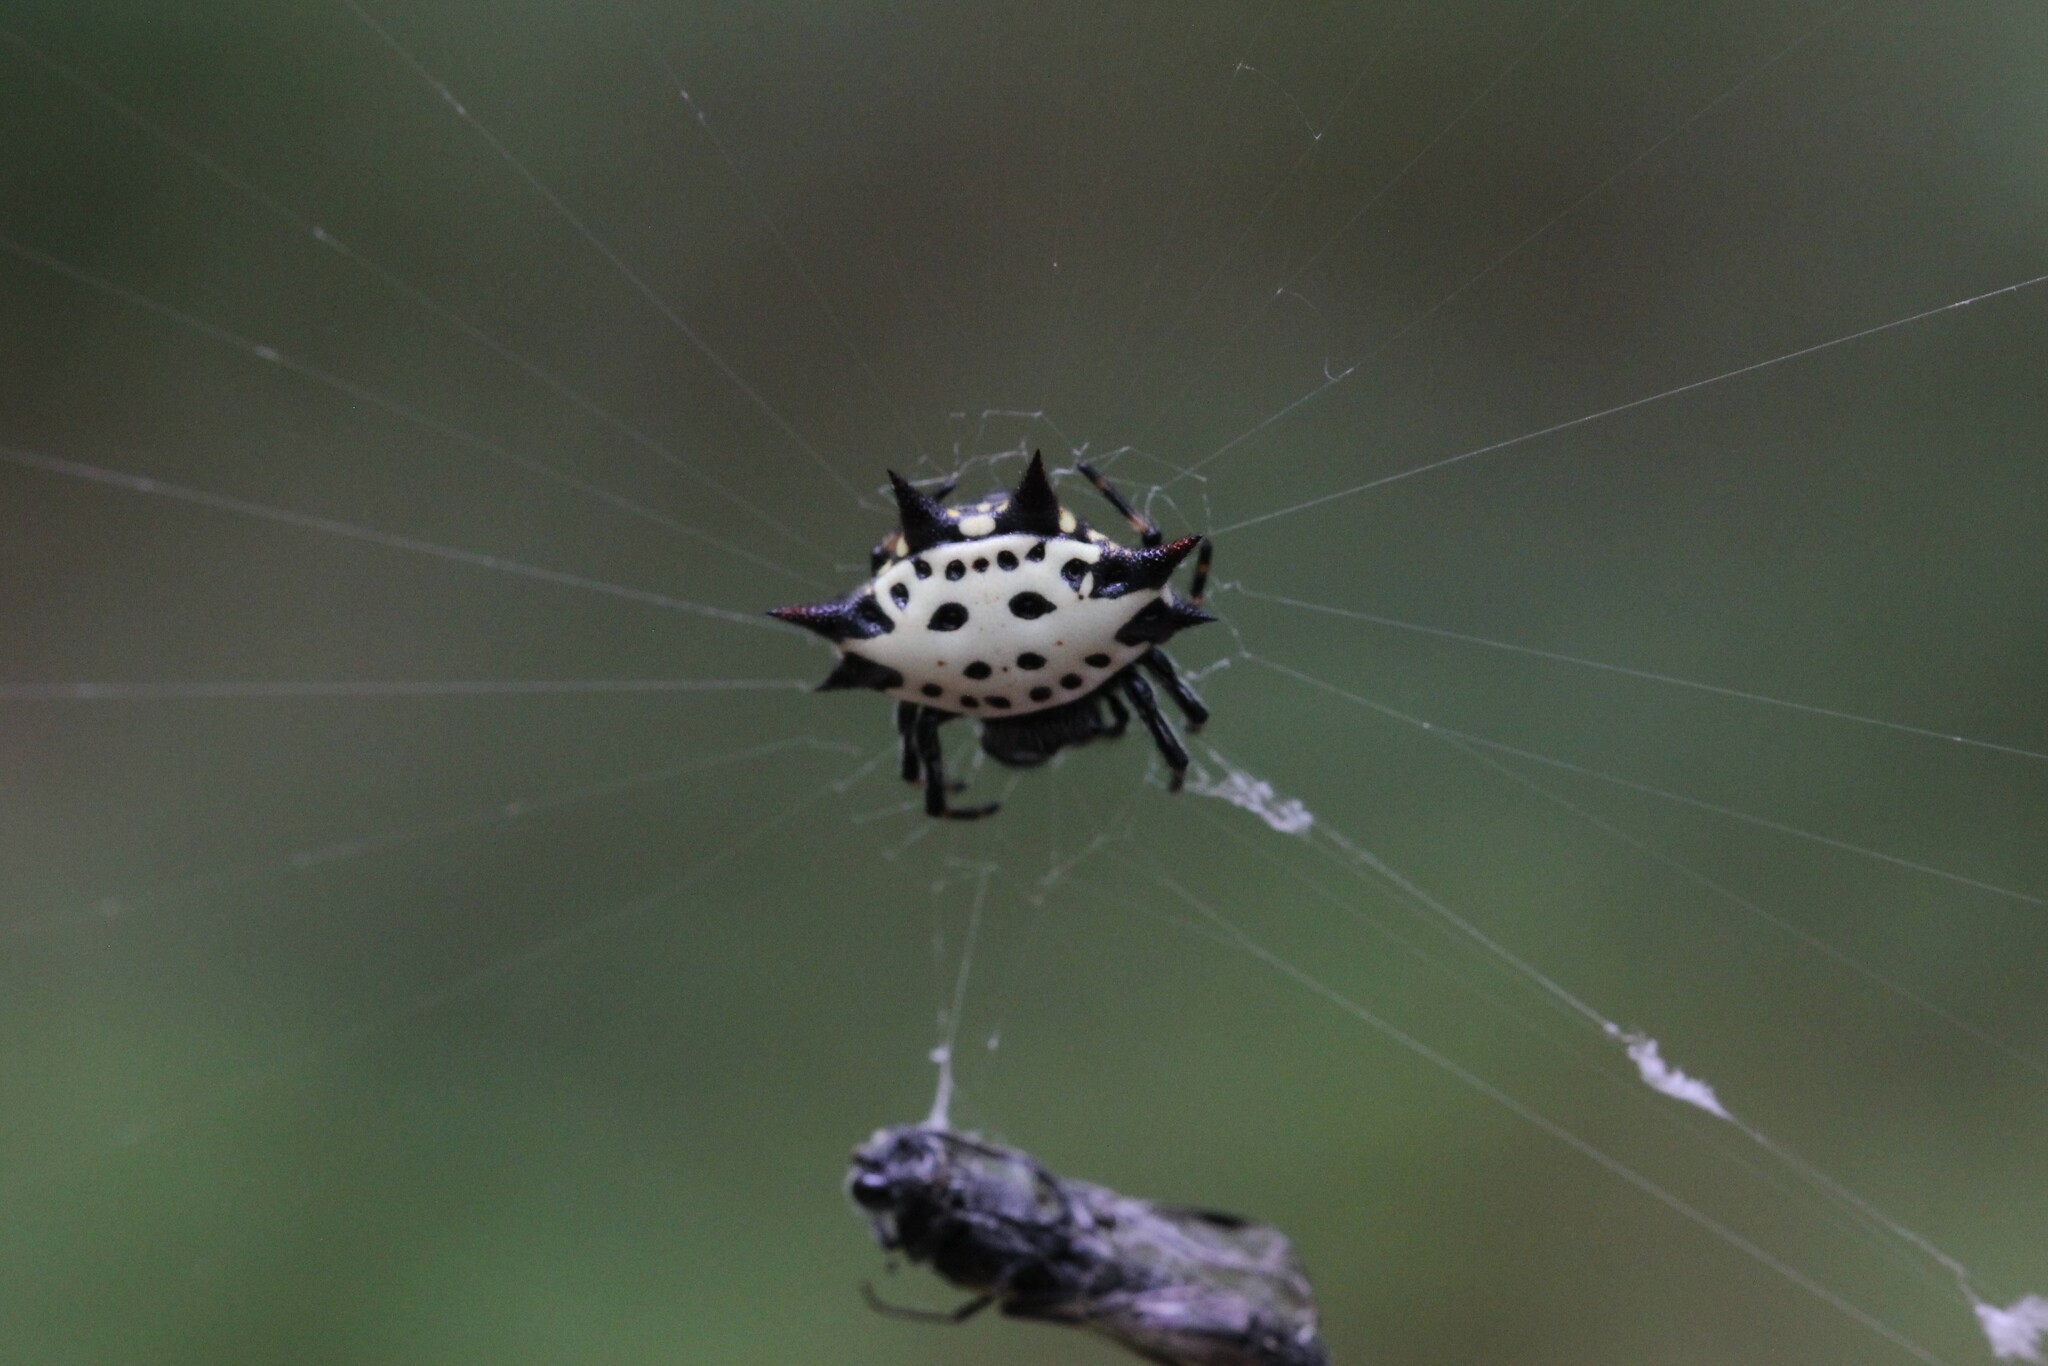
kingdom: Animalia
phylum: Arthropoda
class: Arachnida
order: Araneae
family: Araneidae
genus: Gasteracantha
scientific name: Gasteracantha cancriformis
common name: Orb weavers
